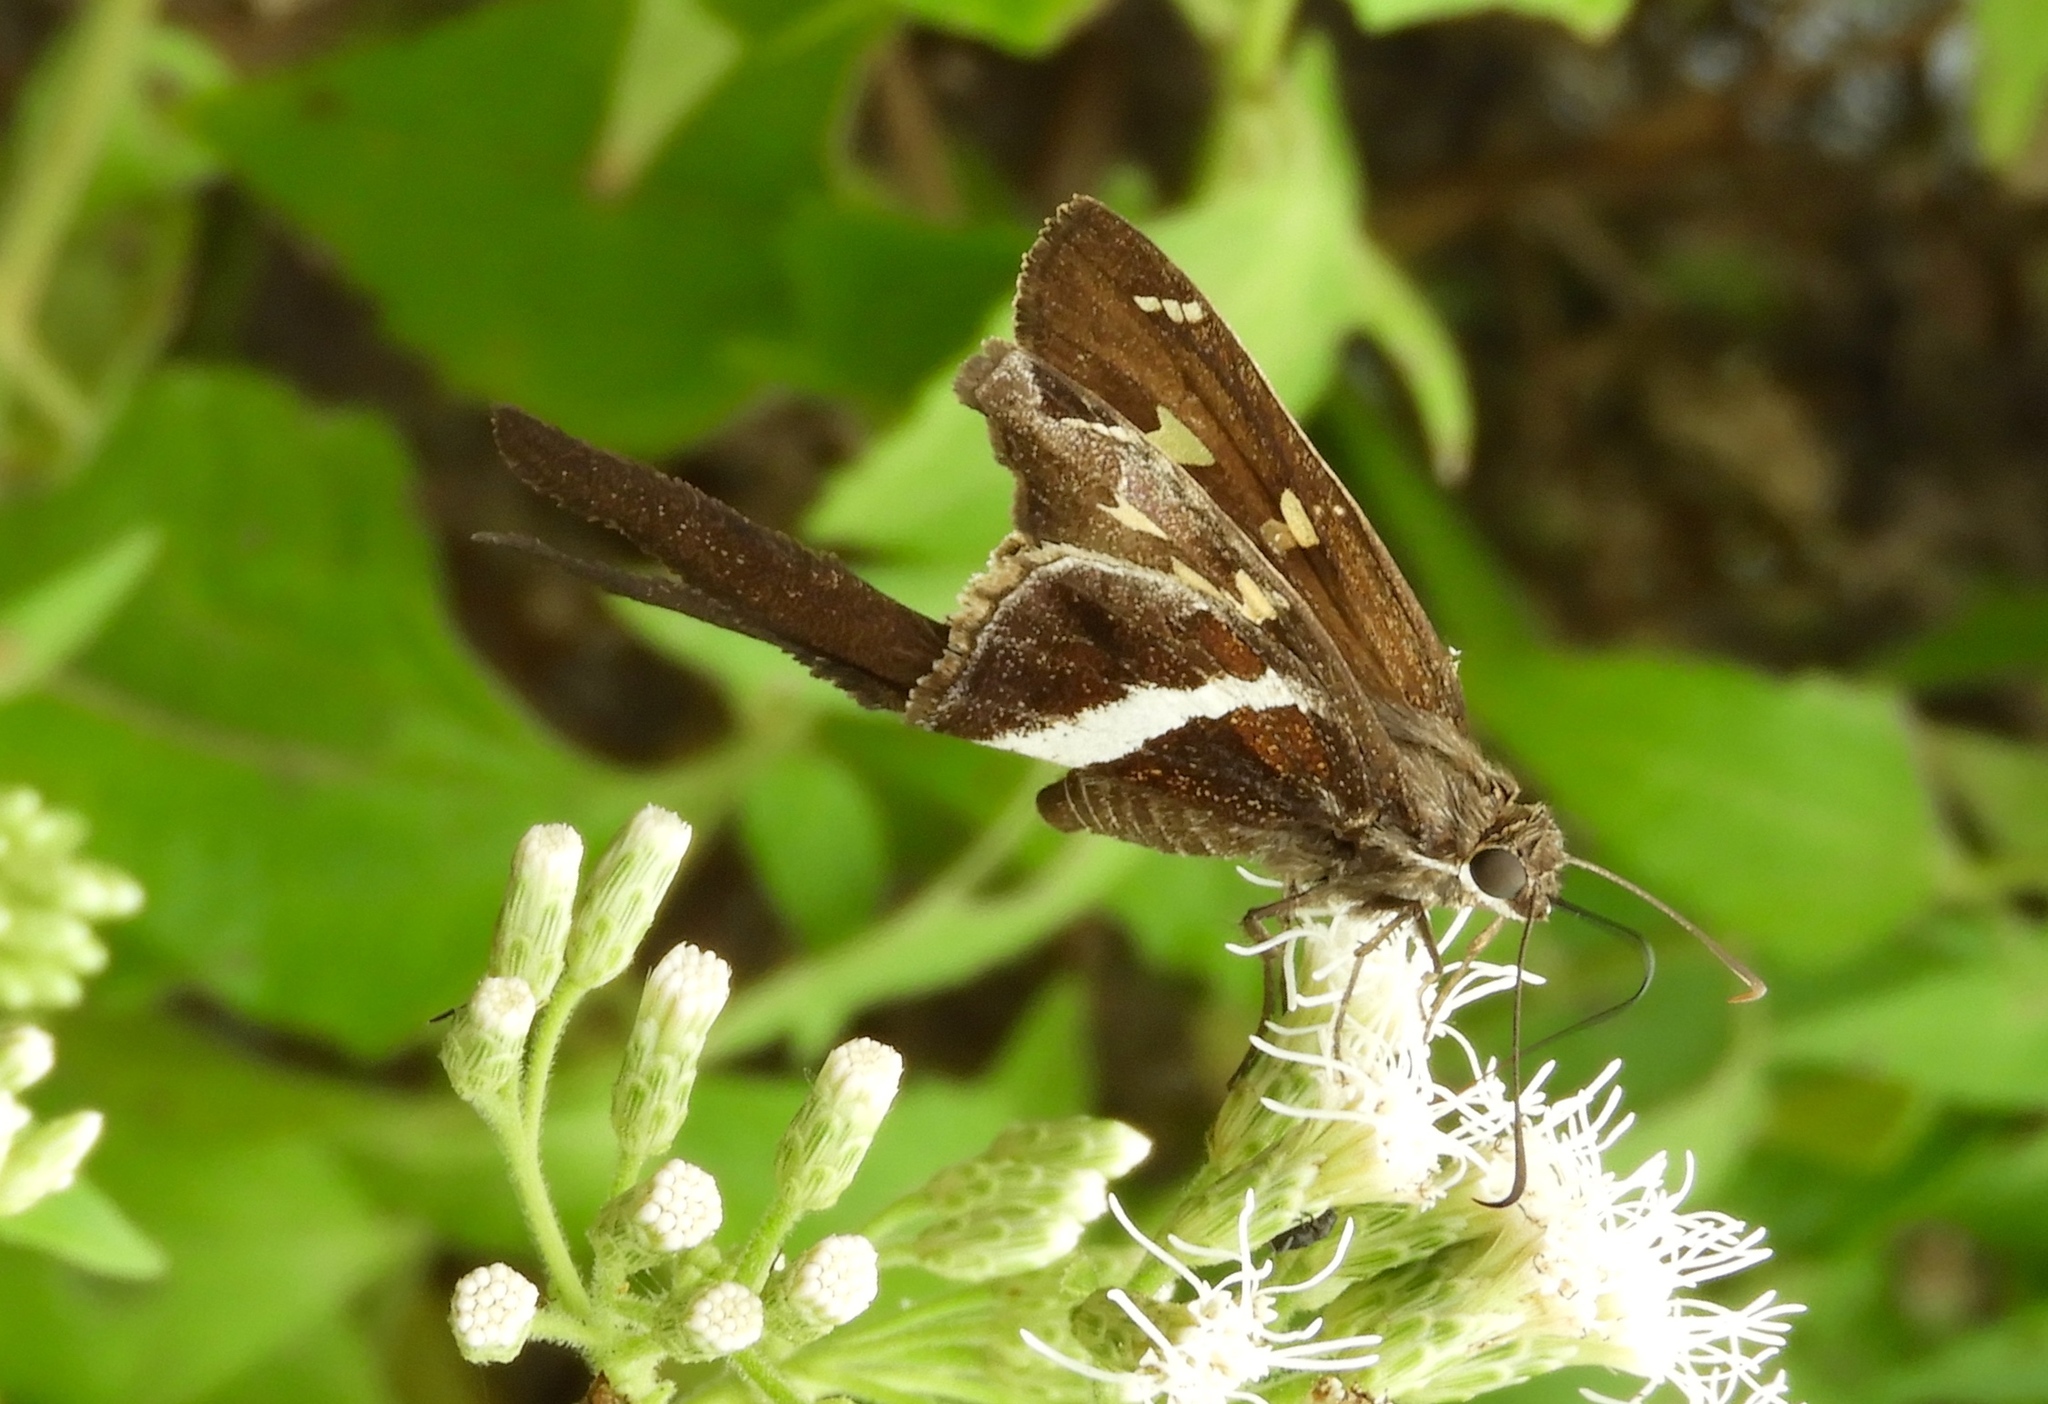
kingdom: Animalia
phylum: Arthropoda
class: Insecta
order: Lepidoptera
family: Hesperiidae
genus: Chioides
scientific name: Chioides catillus
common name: Silverbanded skipper
